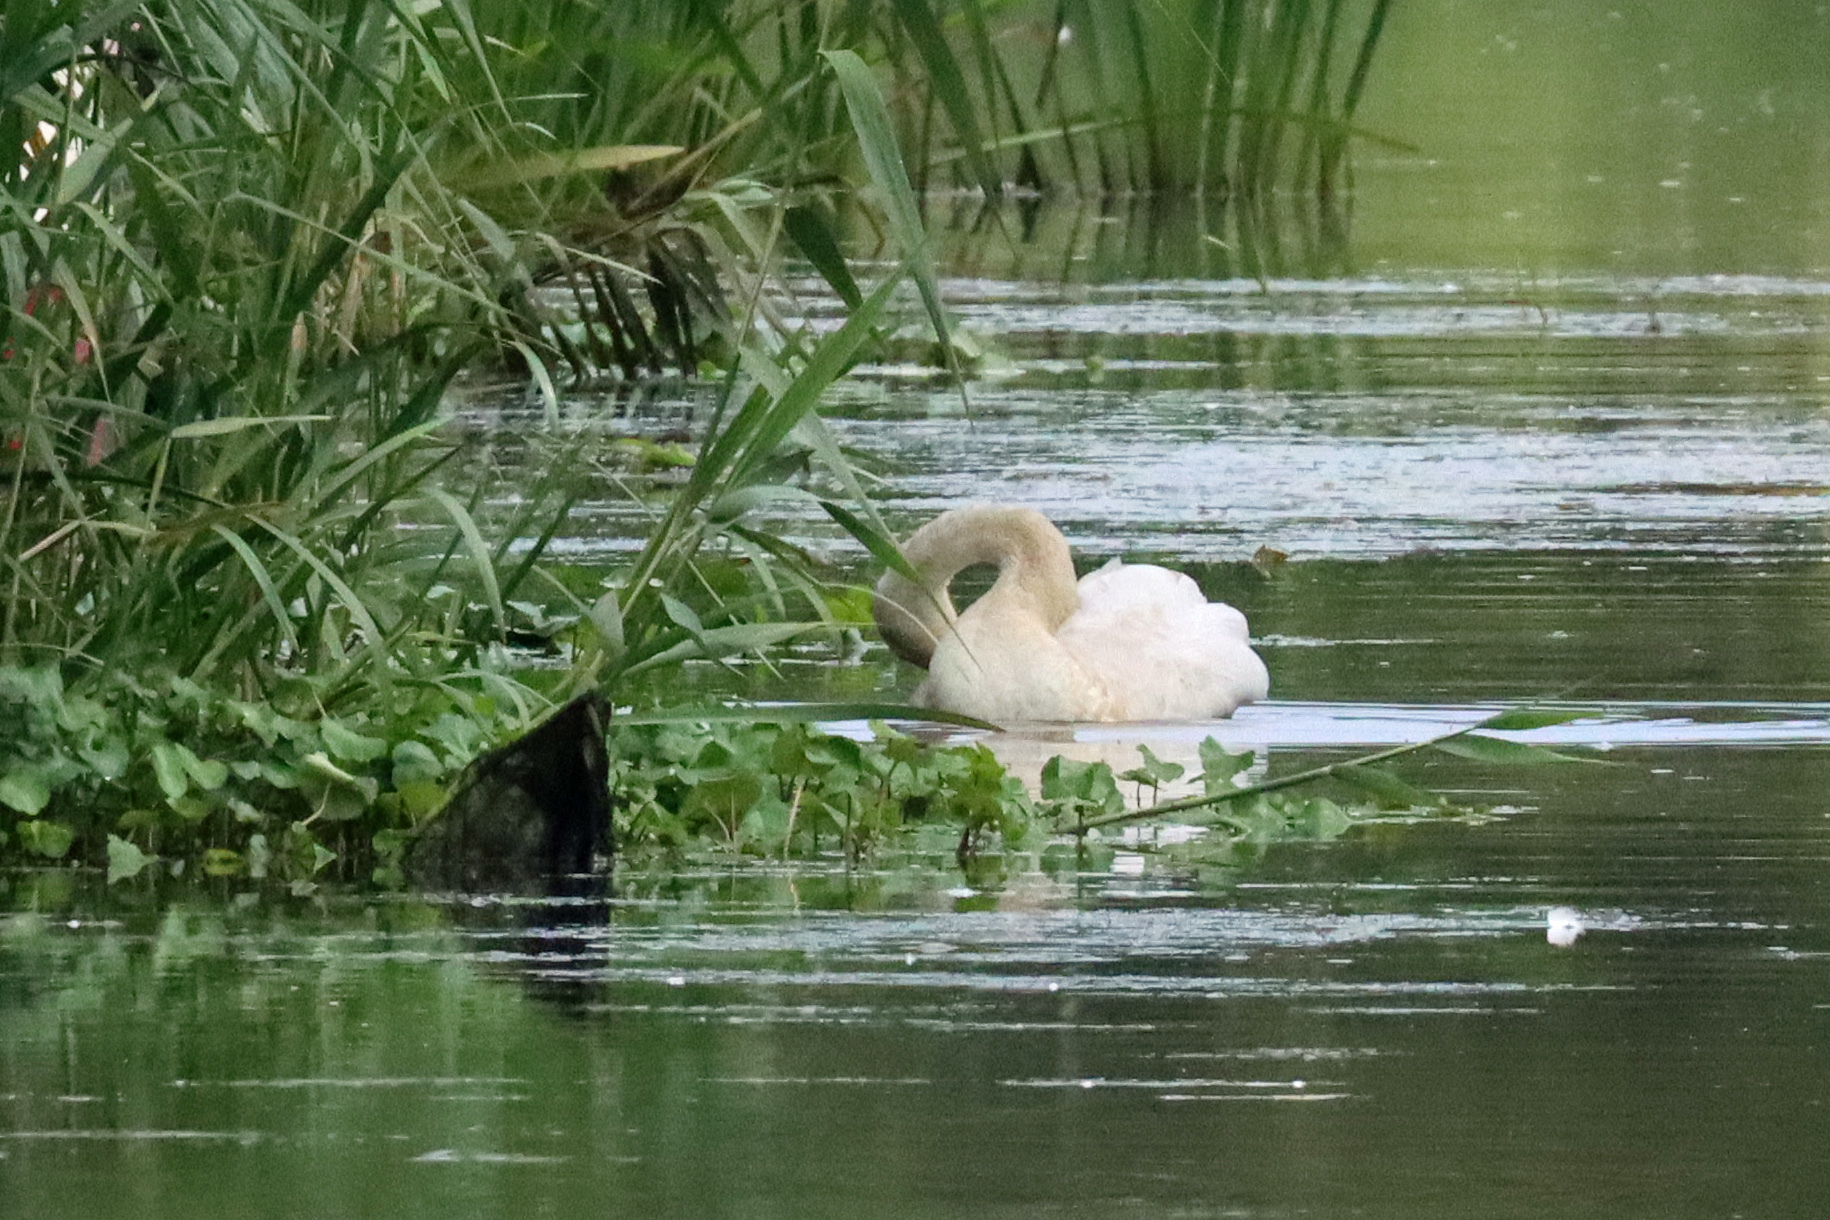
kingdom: Animalia
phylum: Chordata
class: Aves
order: Anseriformes
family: Anatidae
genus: Cygnus
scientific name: Cygnus olor
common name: Mute swan
